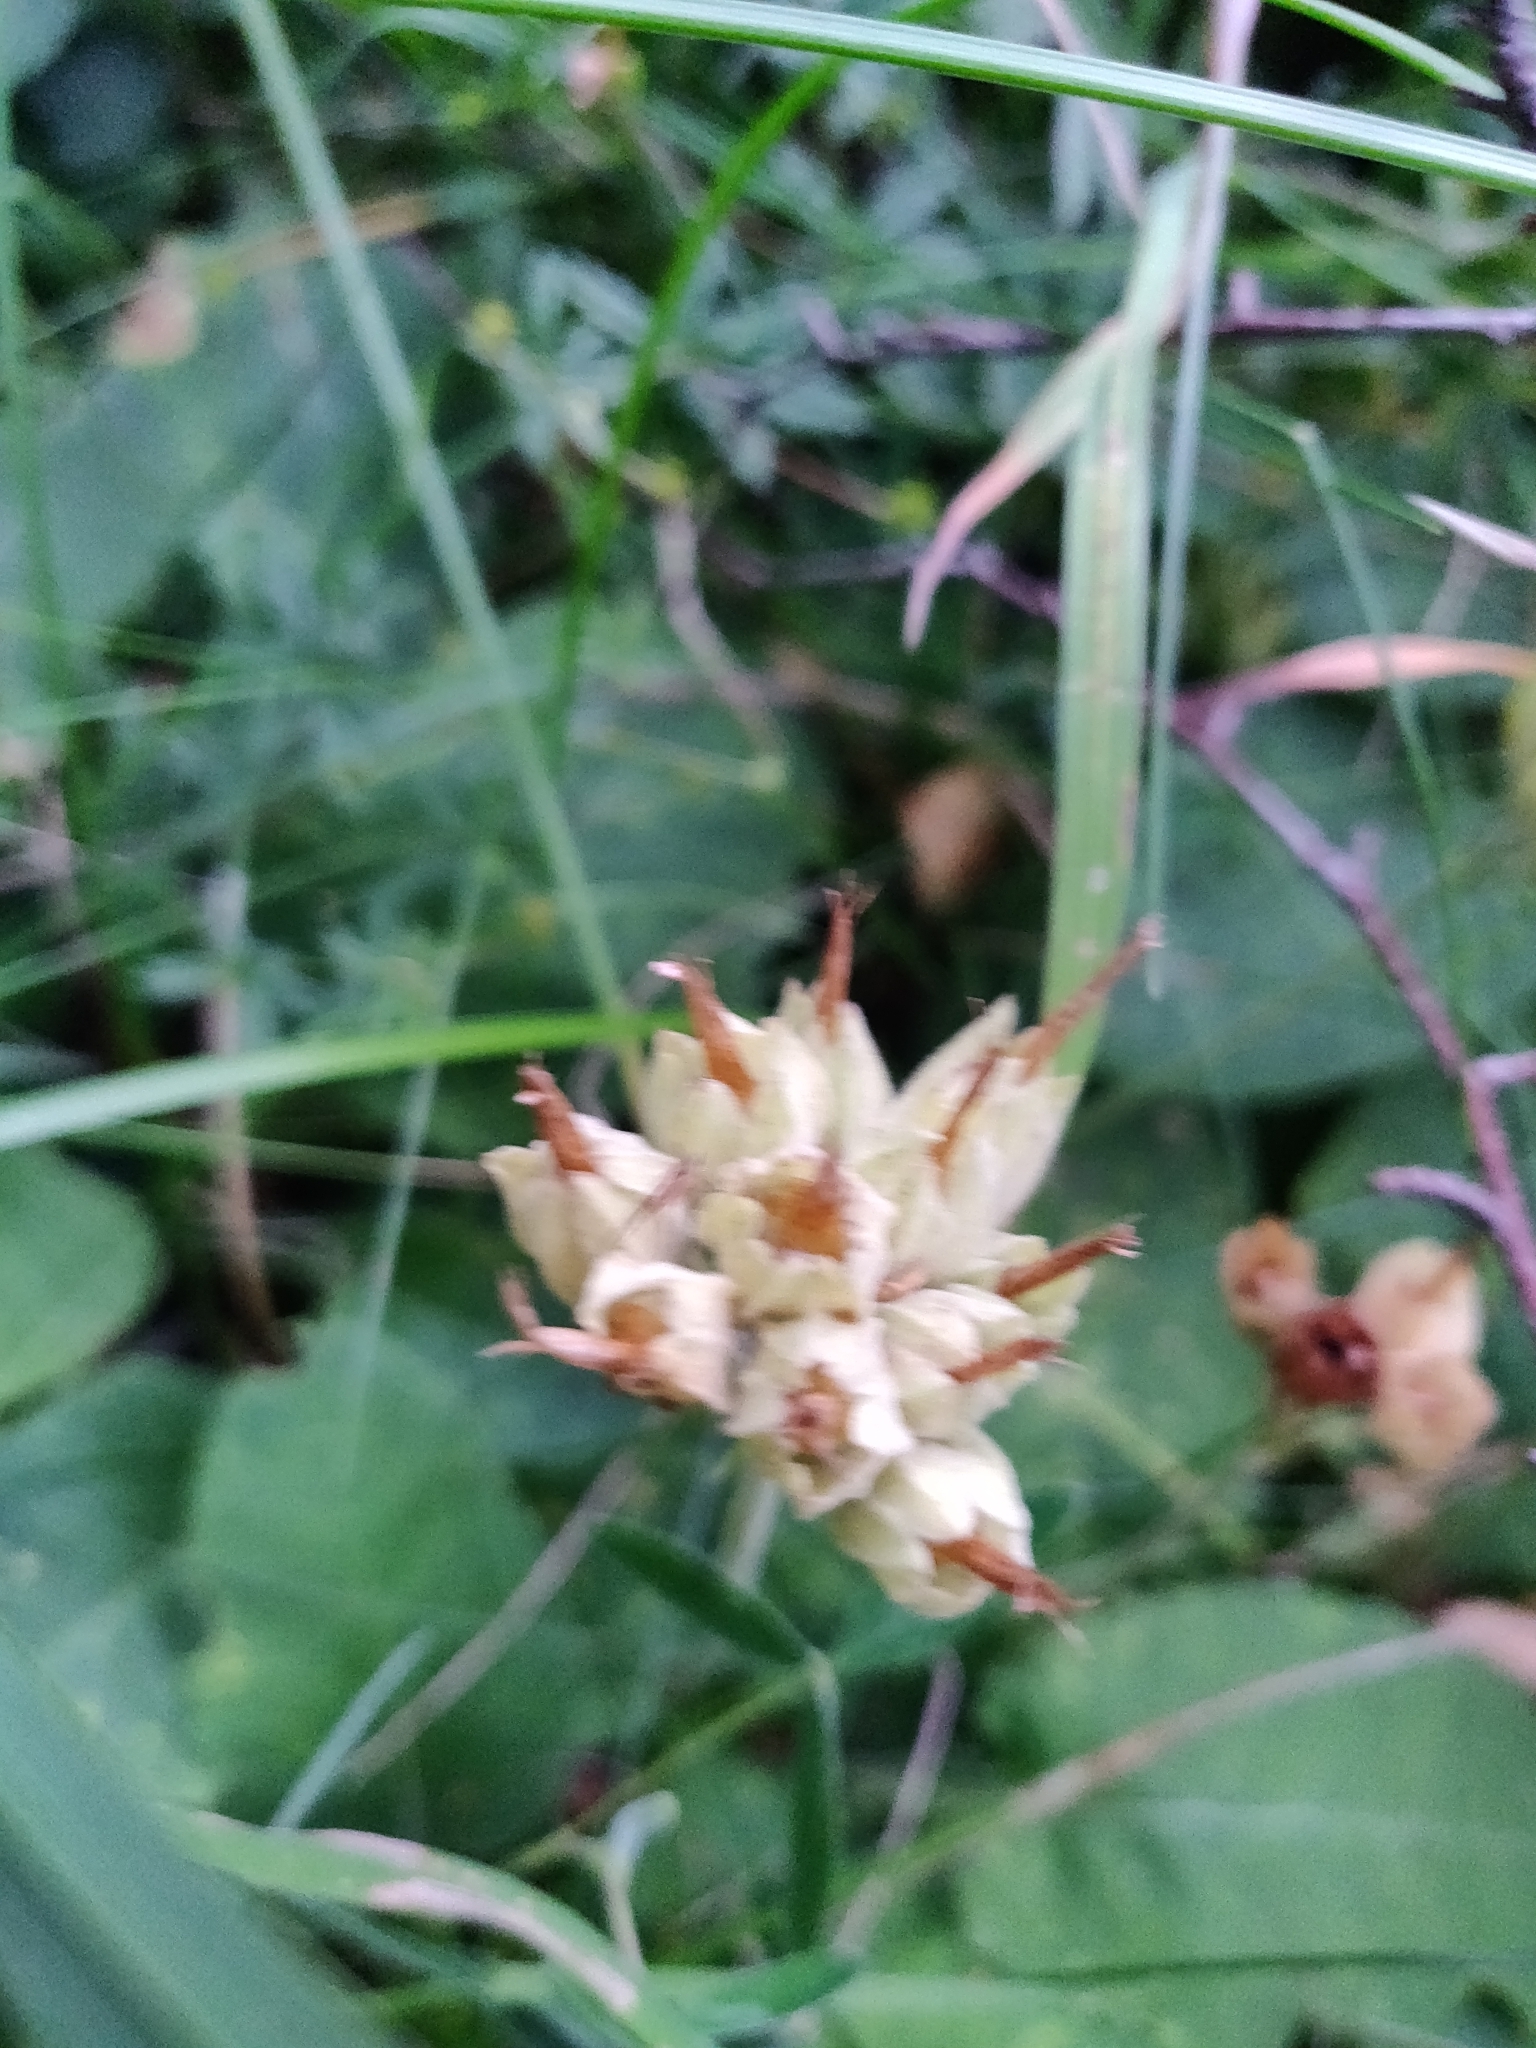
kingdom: Plantae
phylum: Tracheophyta
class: Magnoliopsida
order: Ericales
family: Primulaceae
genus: Primula
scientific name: Primula veris
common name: Cowslip
